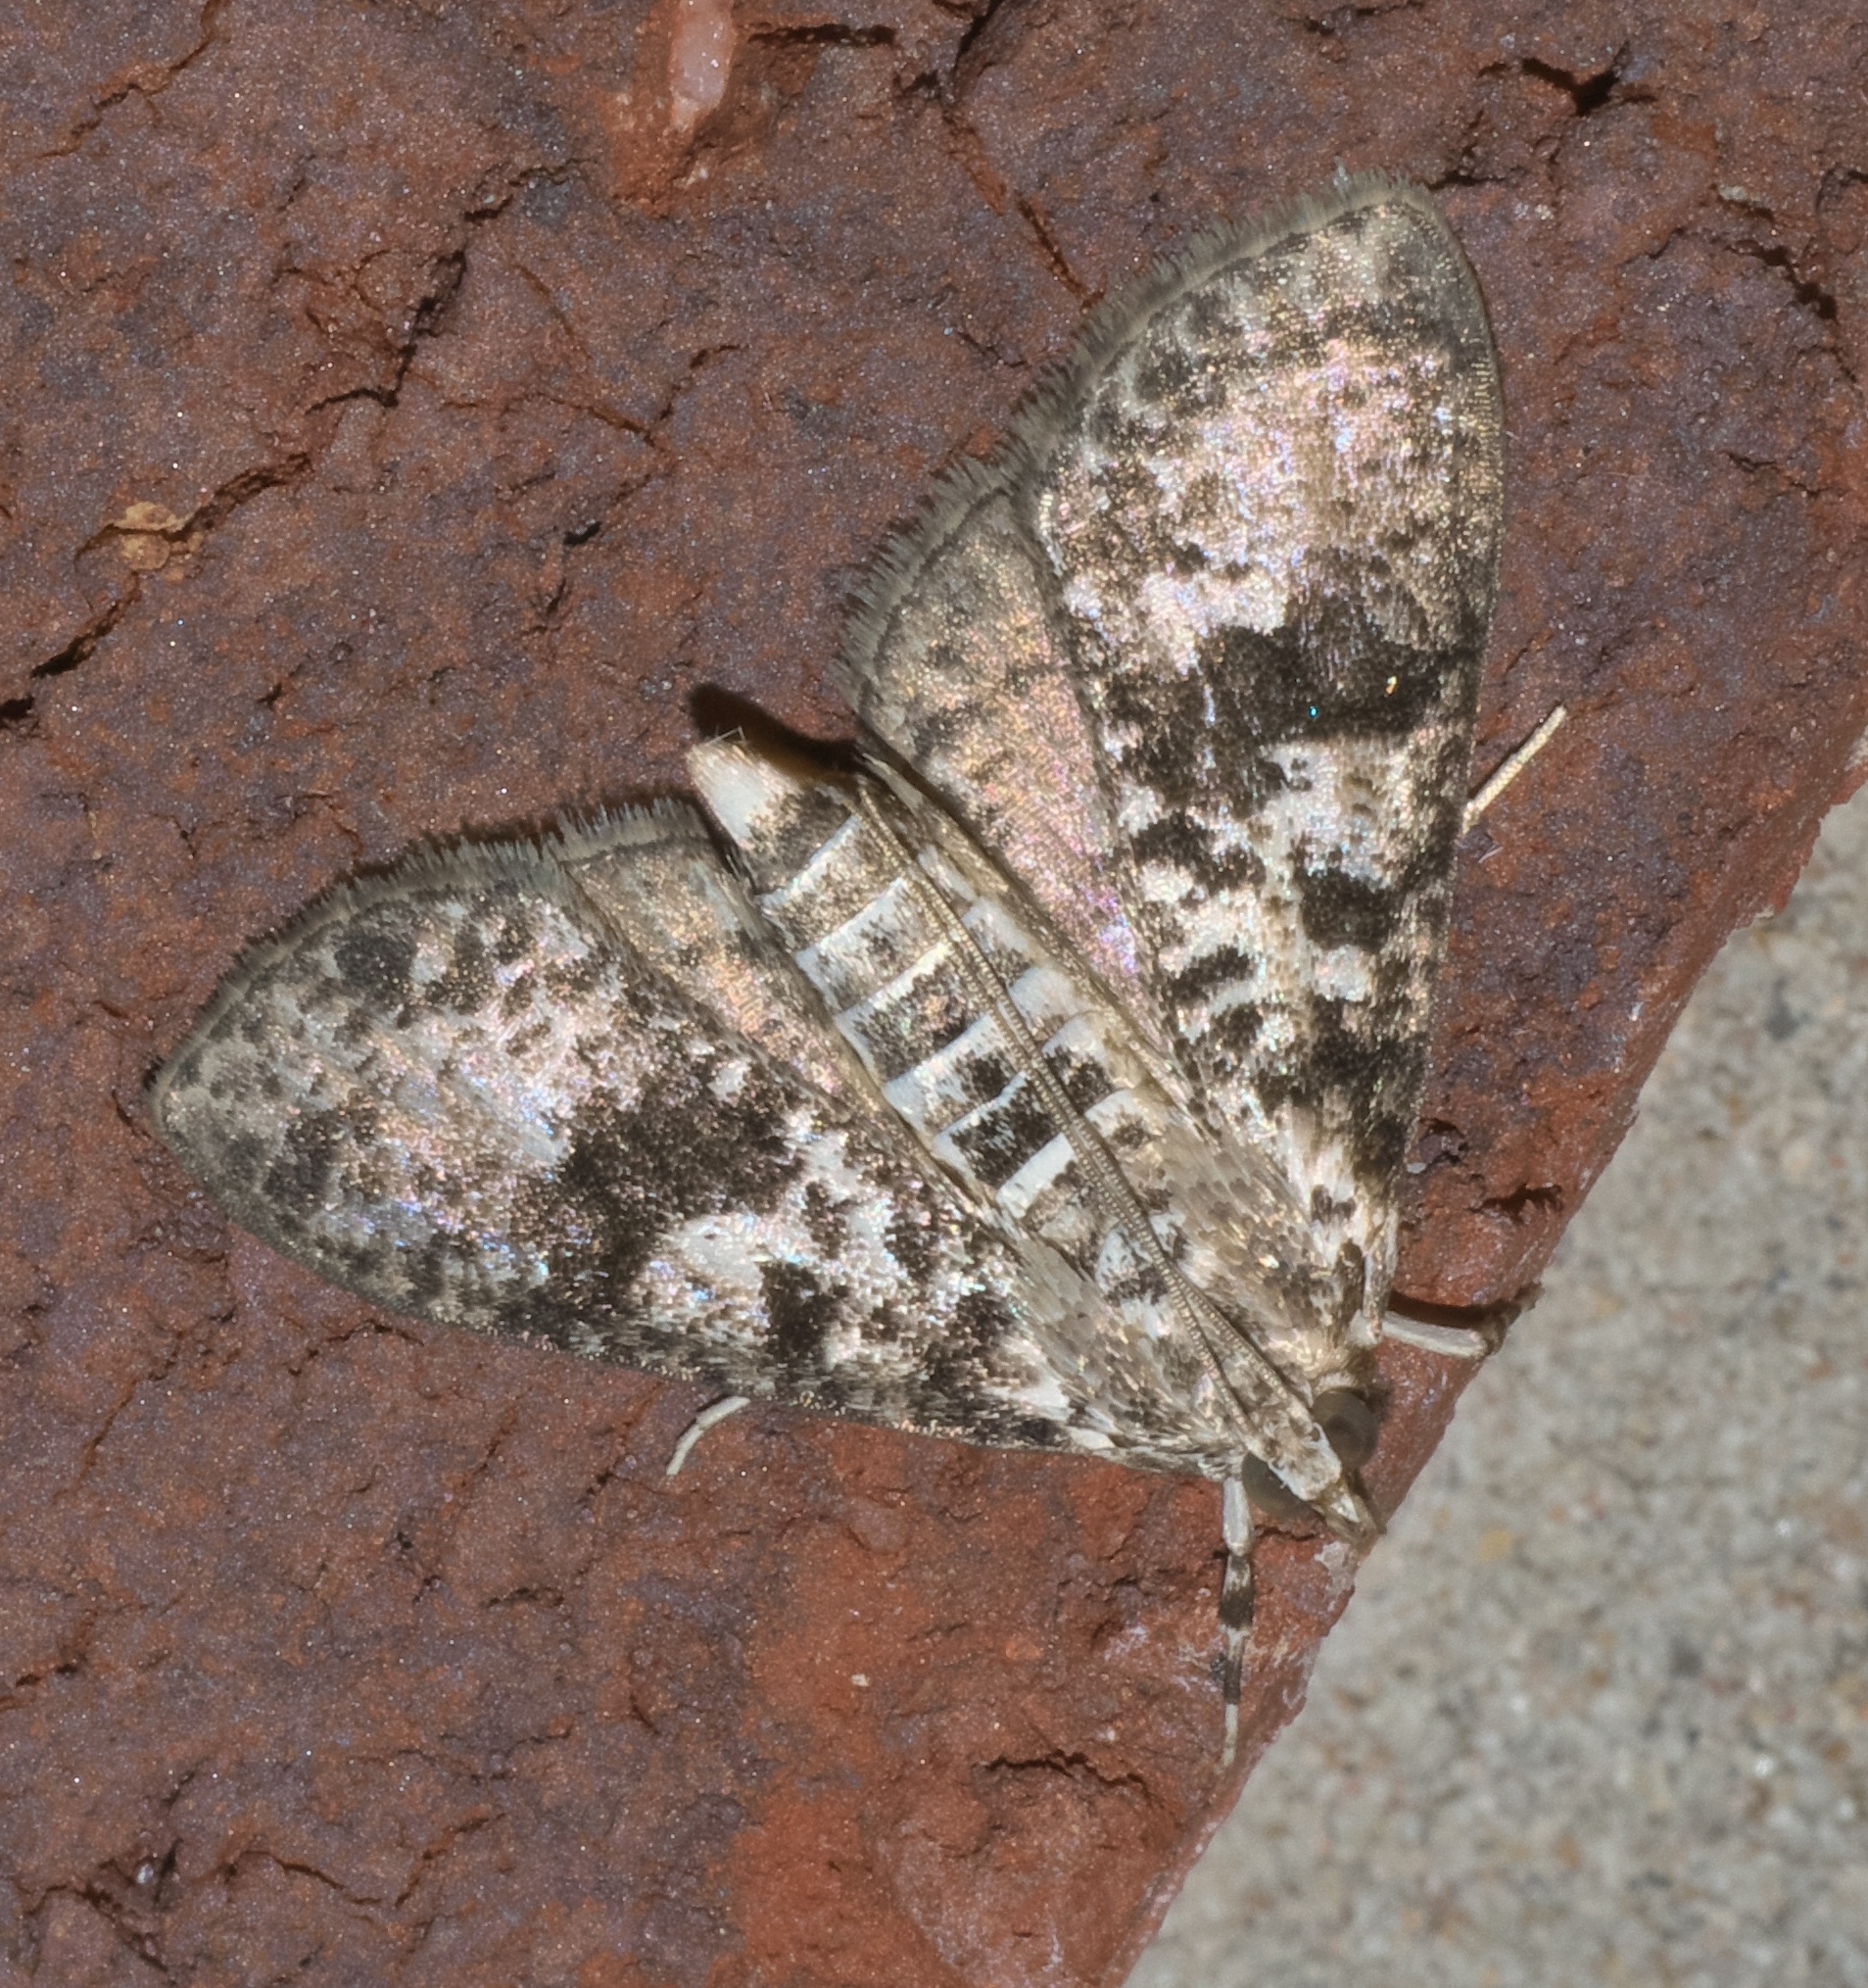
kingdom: Animalia
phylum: Arthropoda
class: Insecta
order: Lepidoptera
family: Crambidae
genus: Palpita
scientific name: Palpita magniferalis
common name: Splendid palpita moth
